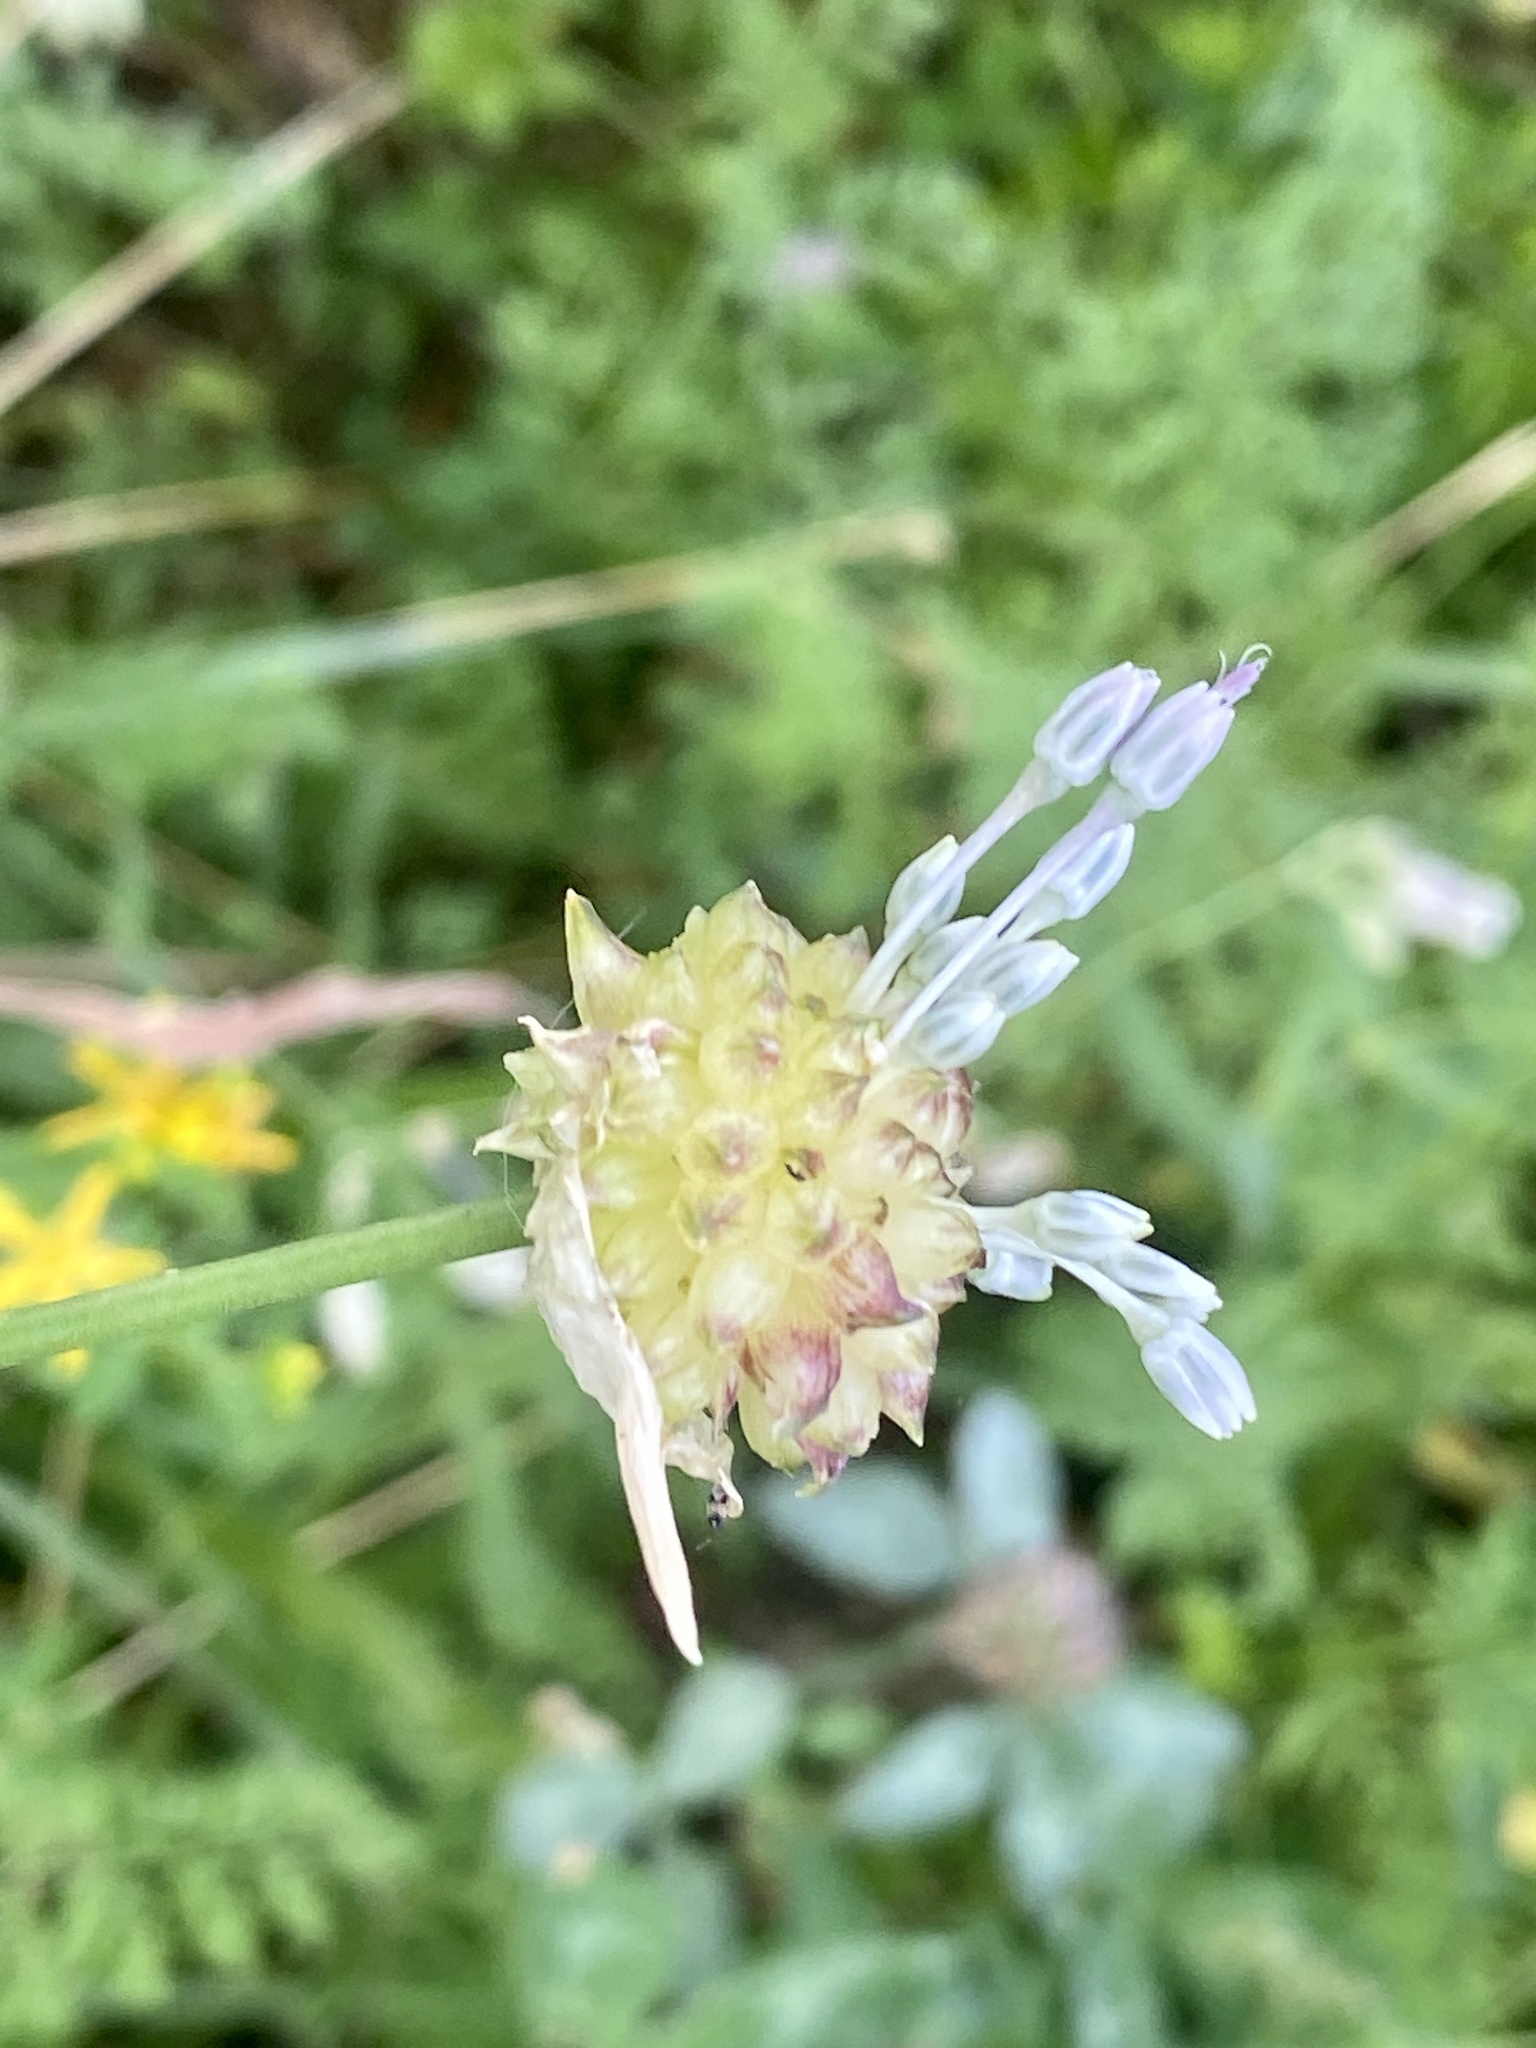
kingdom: Plantae
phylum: Tracheophyta
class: Liliopsida
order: Asparagales
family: Amaryllidaceae
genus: Allium
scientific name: Allium vineale
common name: Crow garlic
